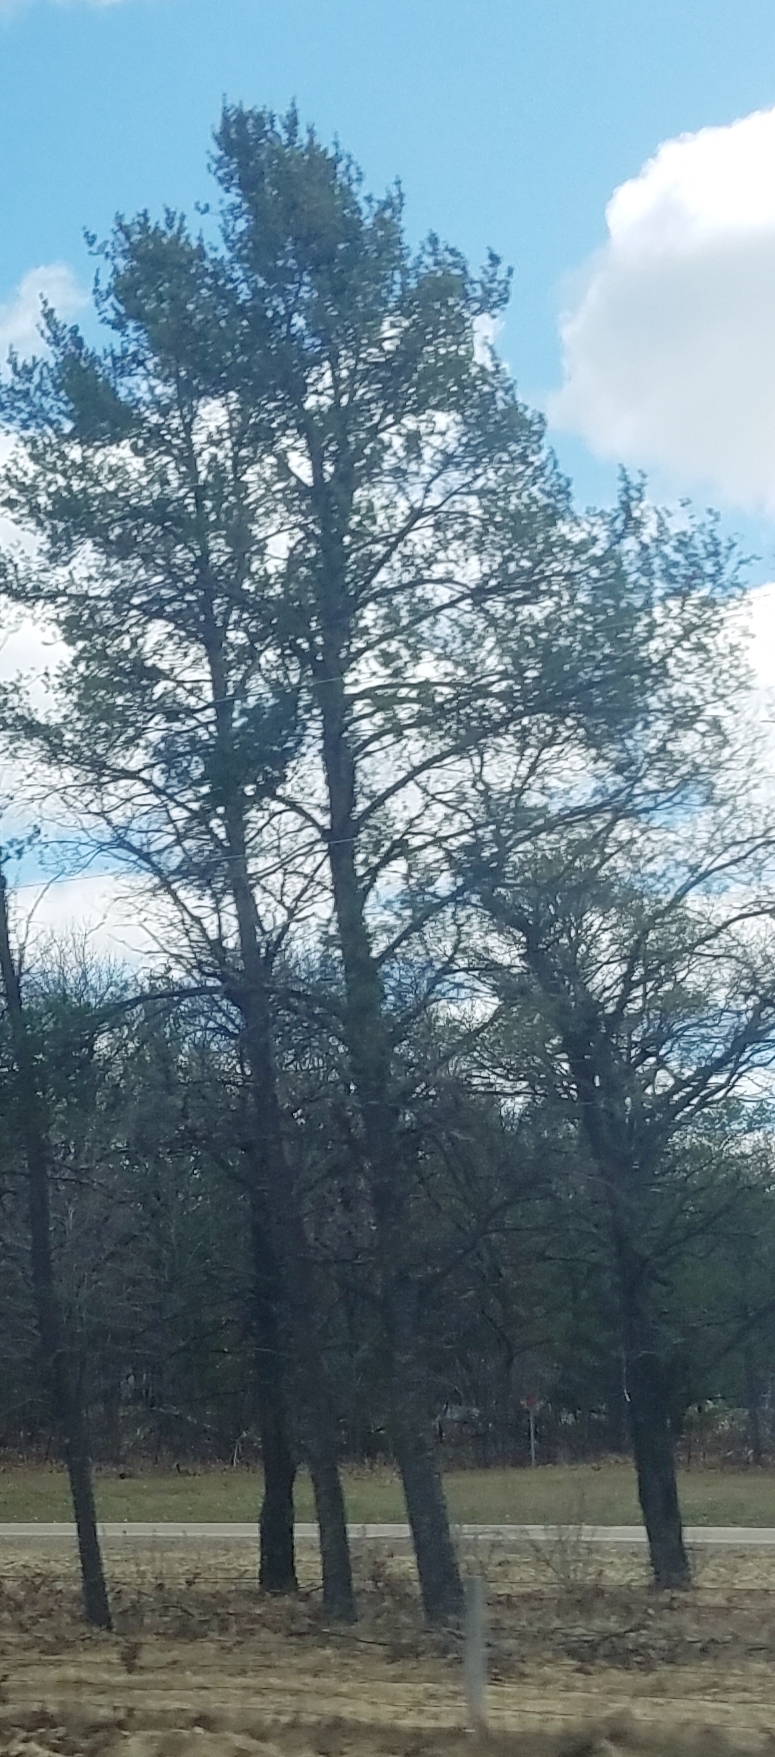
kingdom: Plantae
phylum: Tracheophyta
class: Pinopsida
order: Pinales
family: Pinaceae
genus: Pinus
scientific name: Pinus strobus
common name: Weymouth pine
